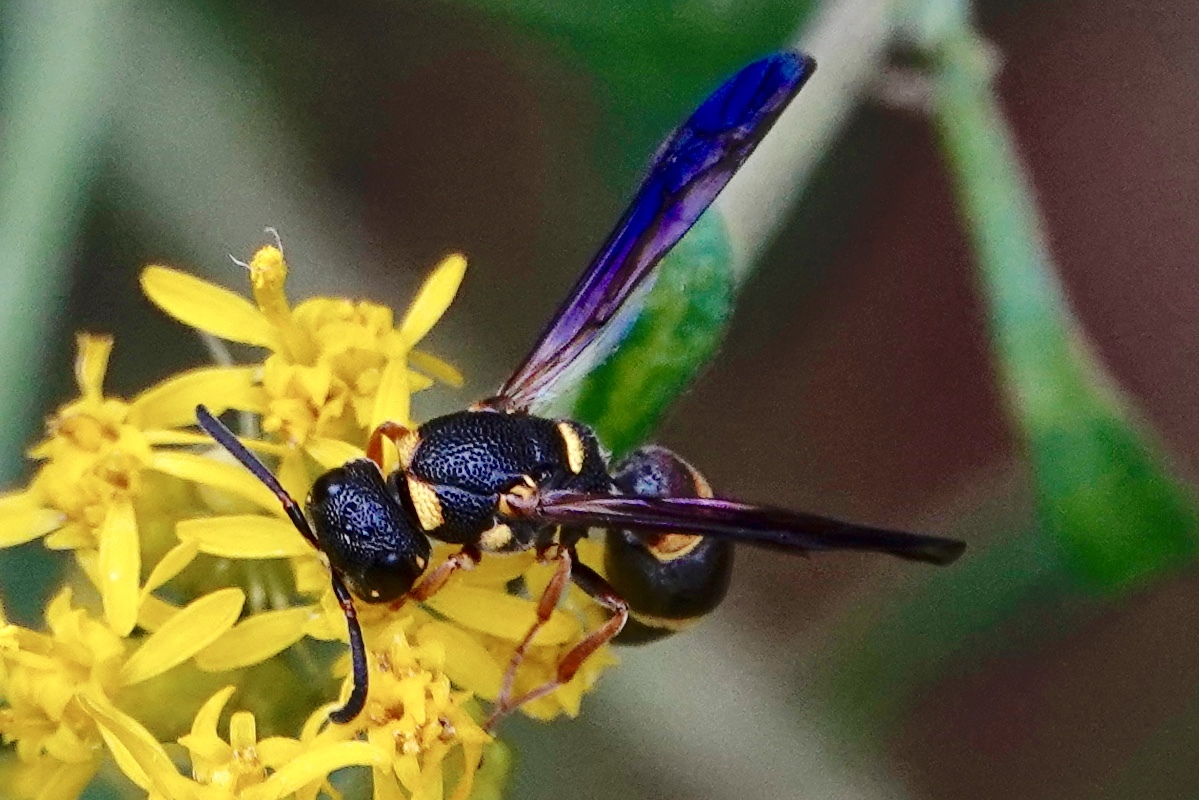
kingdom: Animalia
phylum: Arthropoda
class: Insecta
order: Hymenoptera
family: Eumenidae
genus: Parancistrocerus
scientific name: Parancistrocerus perennis
